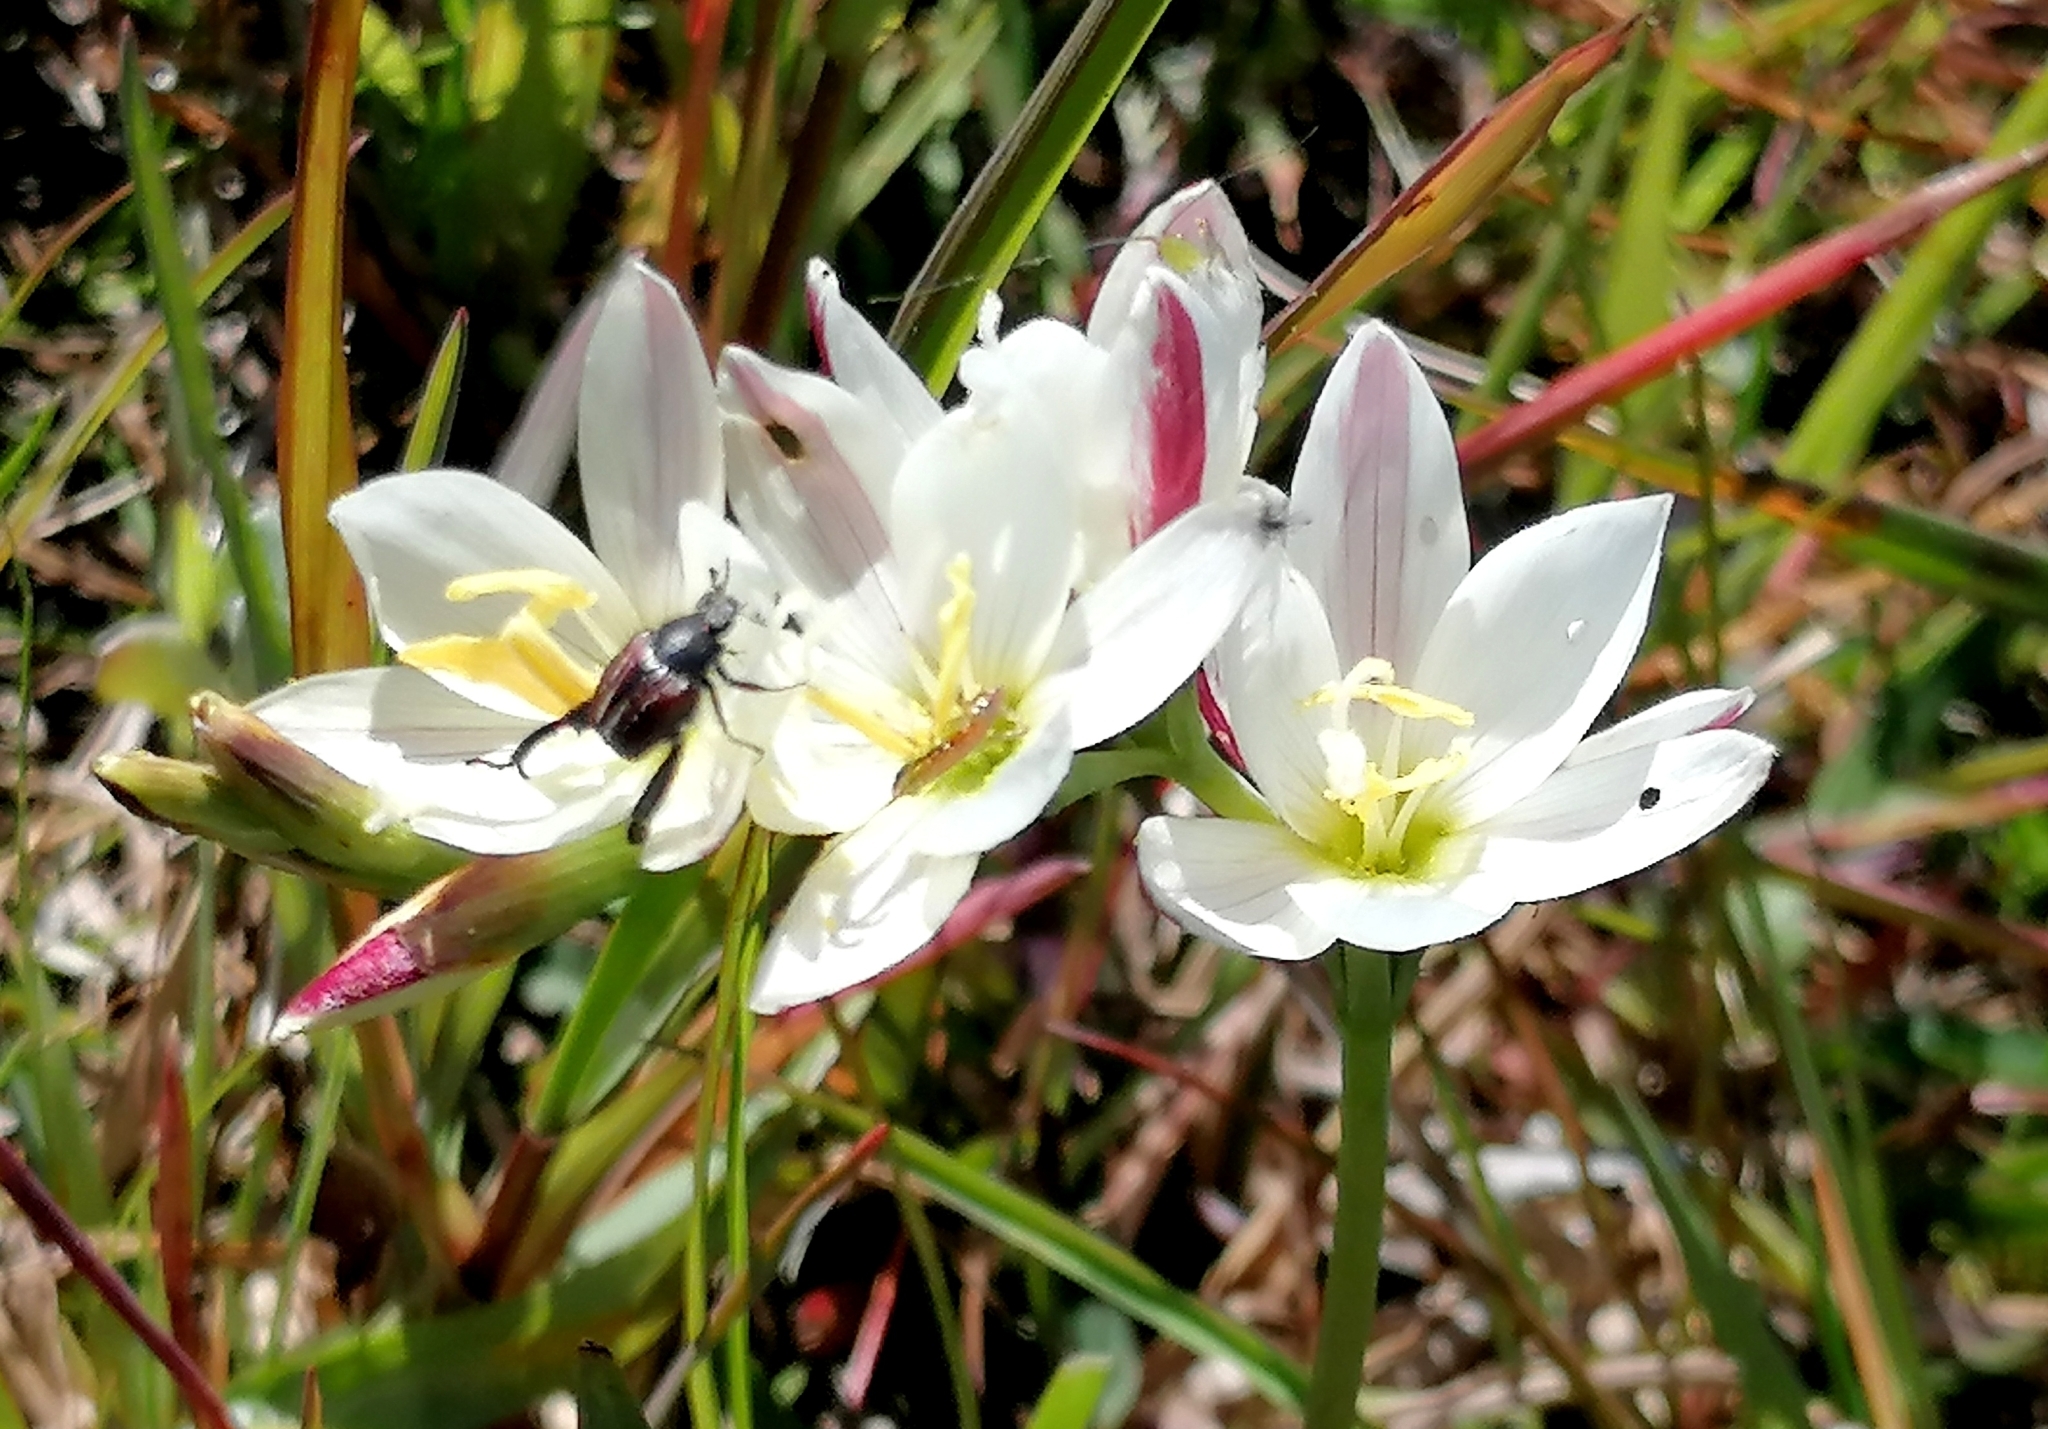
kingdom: Plantae
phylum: Tracheophyta
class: Liliopsida
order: Asparagales
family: Iridaceae
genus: Geissorhiza
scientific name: Geissorhiza imbricata
